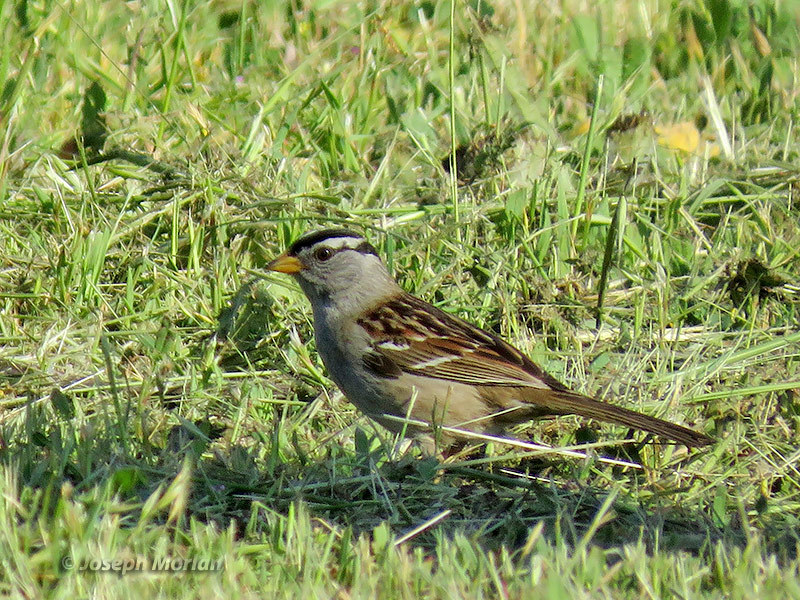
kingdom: Animalia
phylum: Chordata
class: Aves
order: Passeriformes
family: Passerellidae
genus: Zonotrichia
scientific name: Zonotrichia leucophrys
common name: White-crowned sparrow
